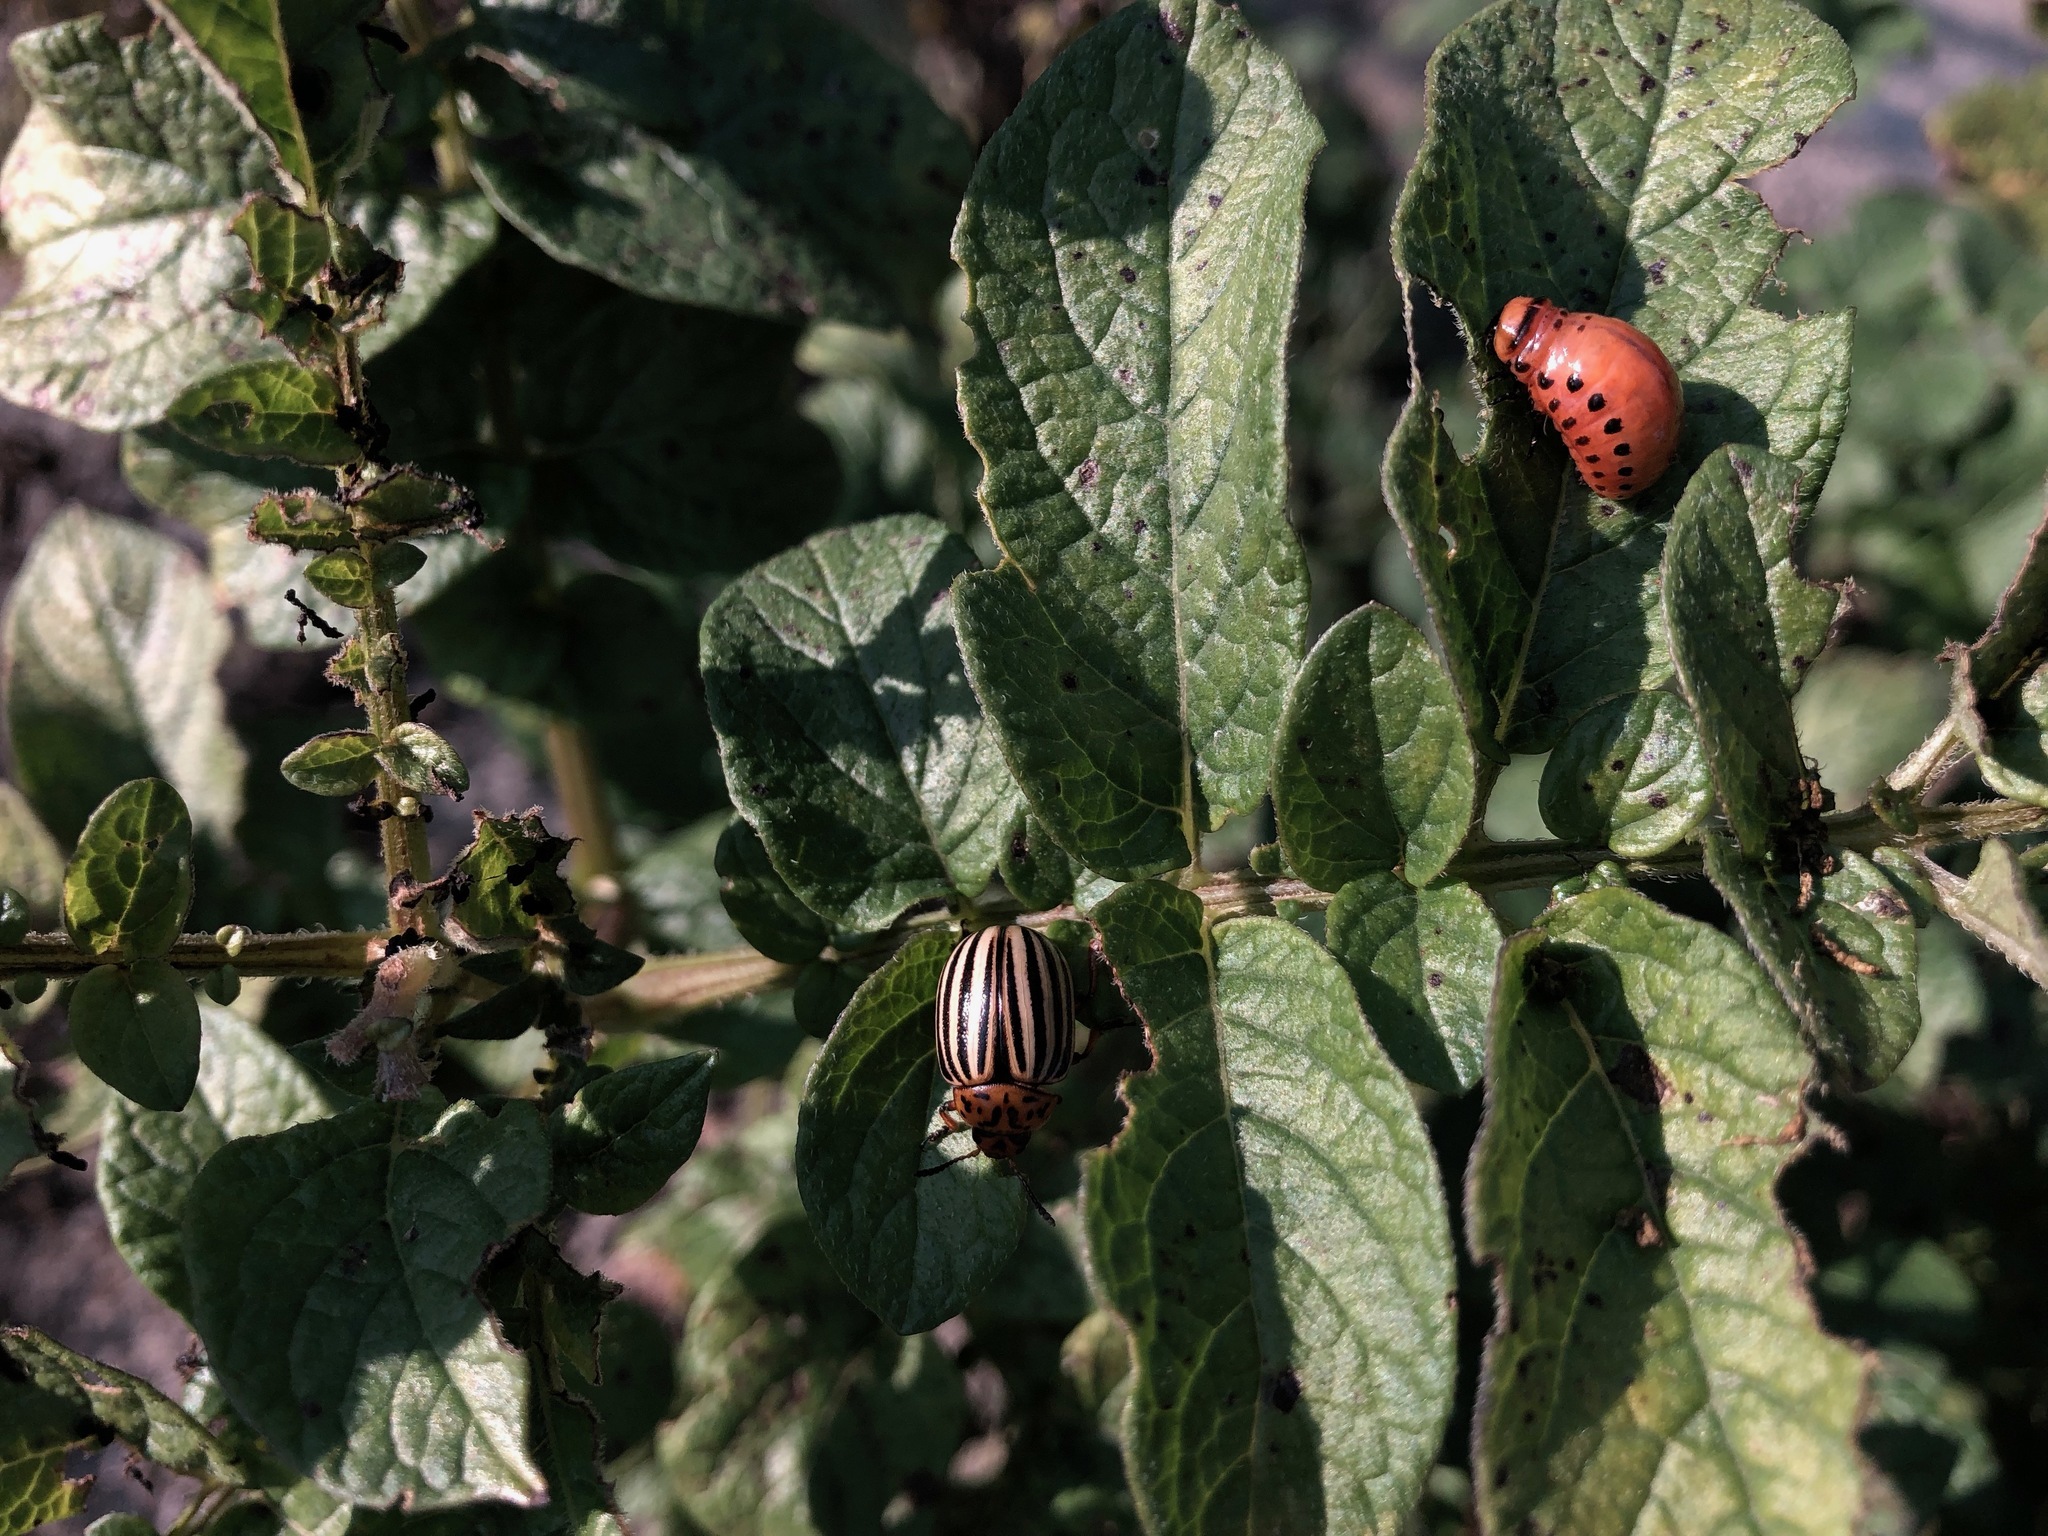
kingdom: Animalia
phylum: Arthropoda
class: Insecta
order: Coleoptera
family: Chrysomelidae
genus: Leptinotarsa
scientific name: Leptinotarsa decemlineata
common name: Colorado potato beetle
